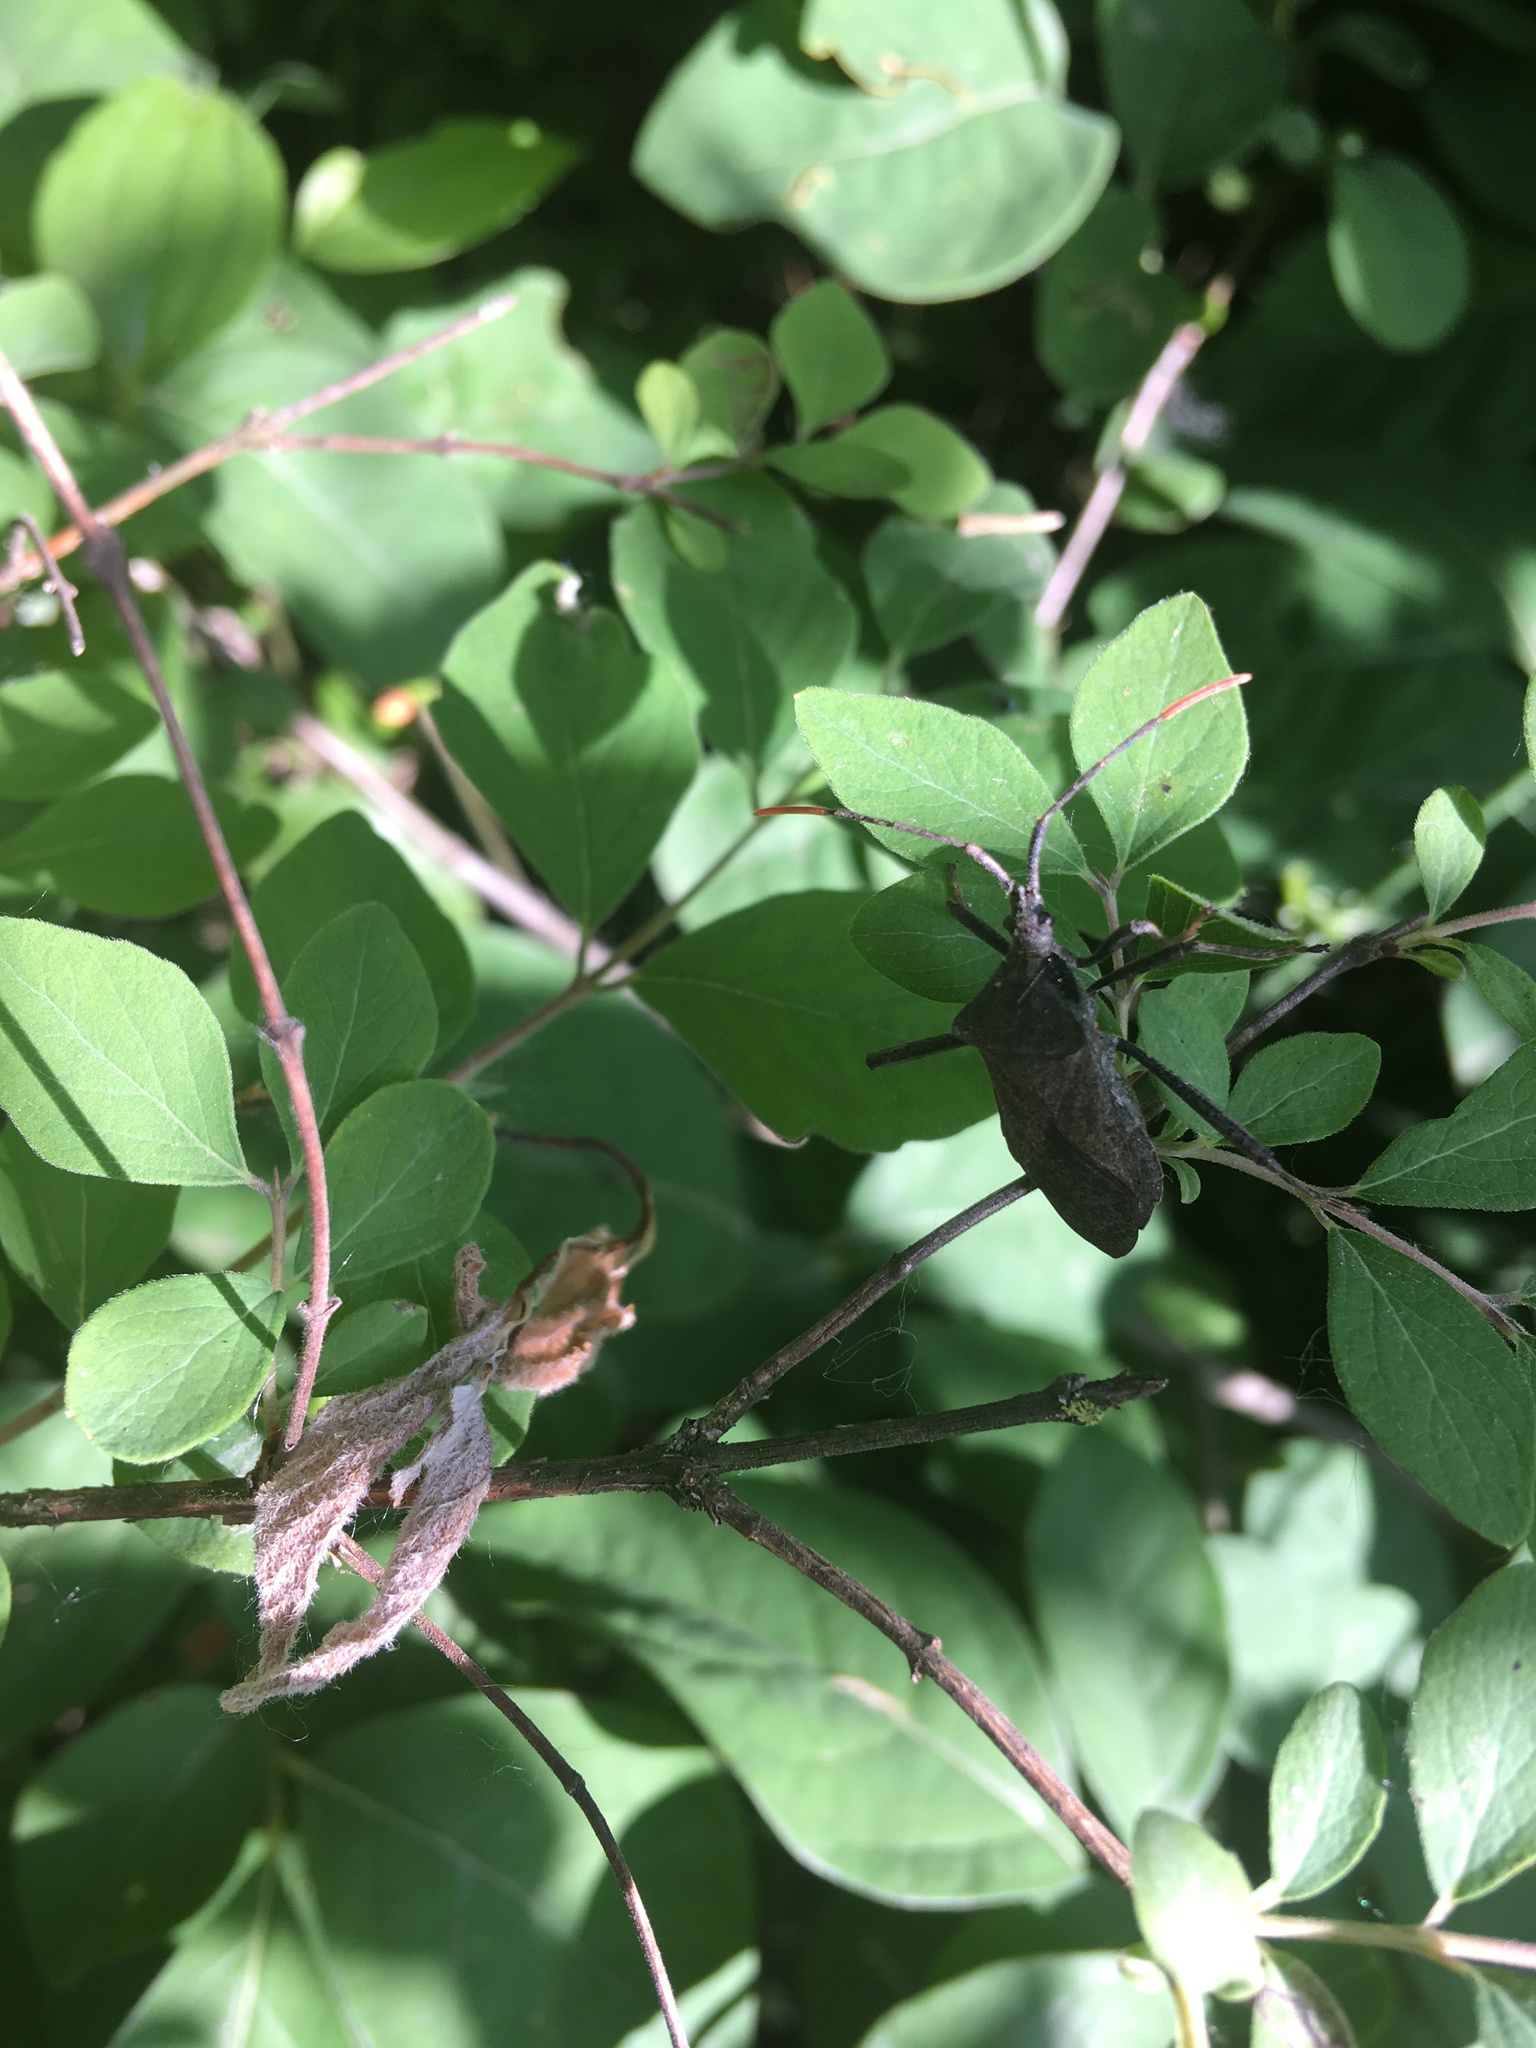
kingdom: Animalia
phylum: Arthropoda
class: Insecta
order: Hemiptera
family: Coreidae
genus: Acanthocephala
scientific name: Acanthocephala terminalis
